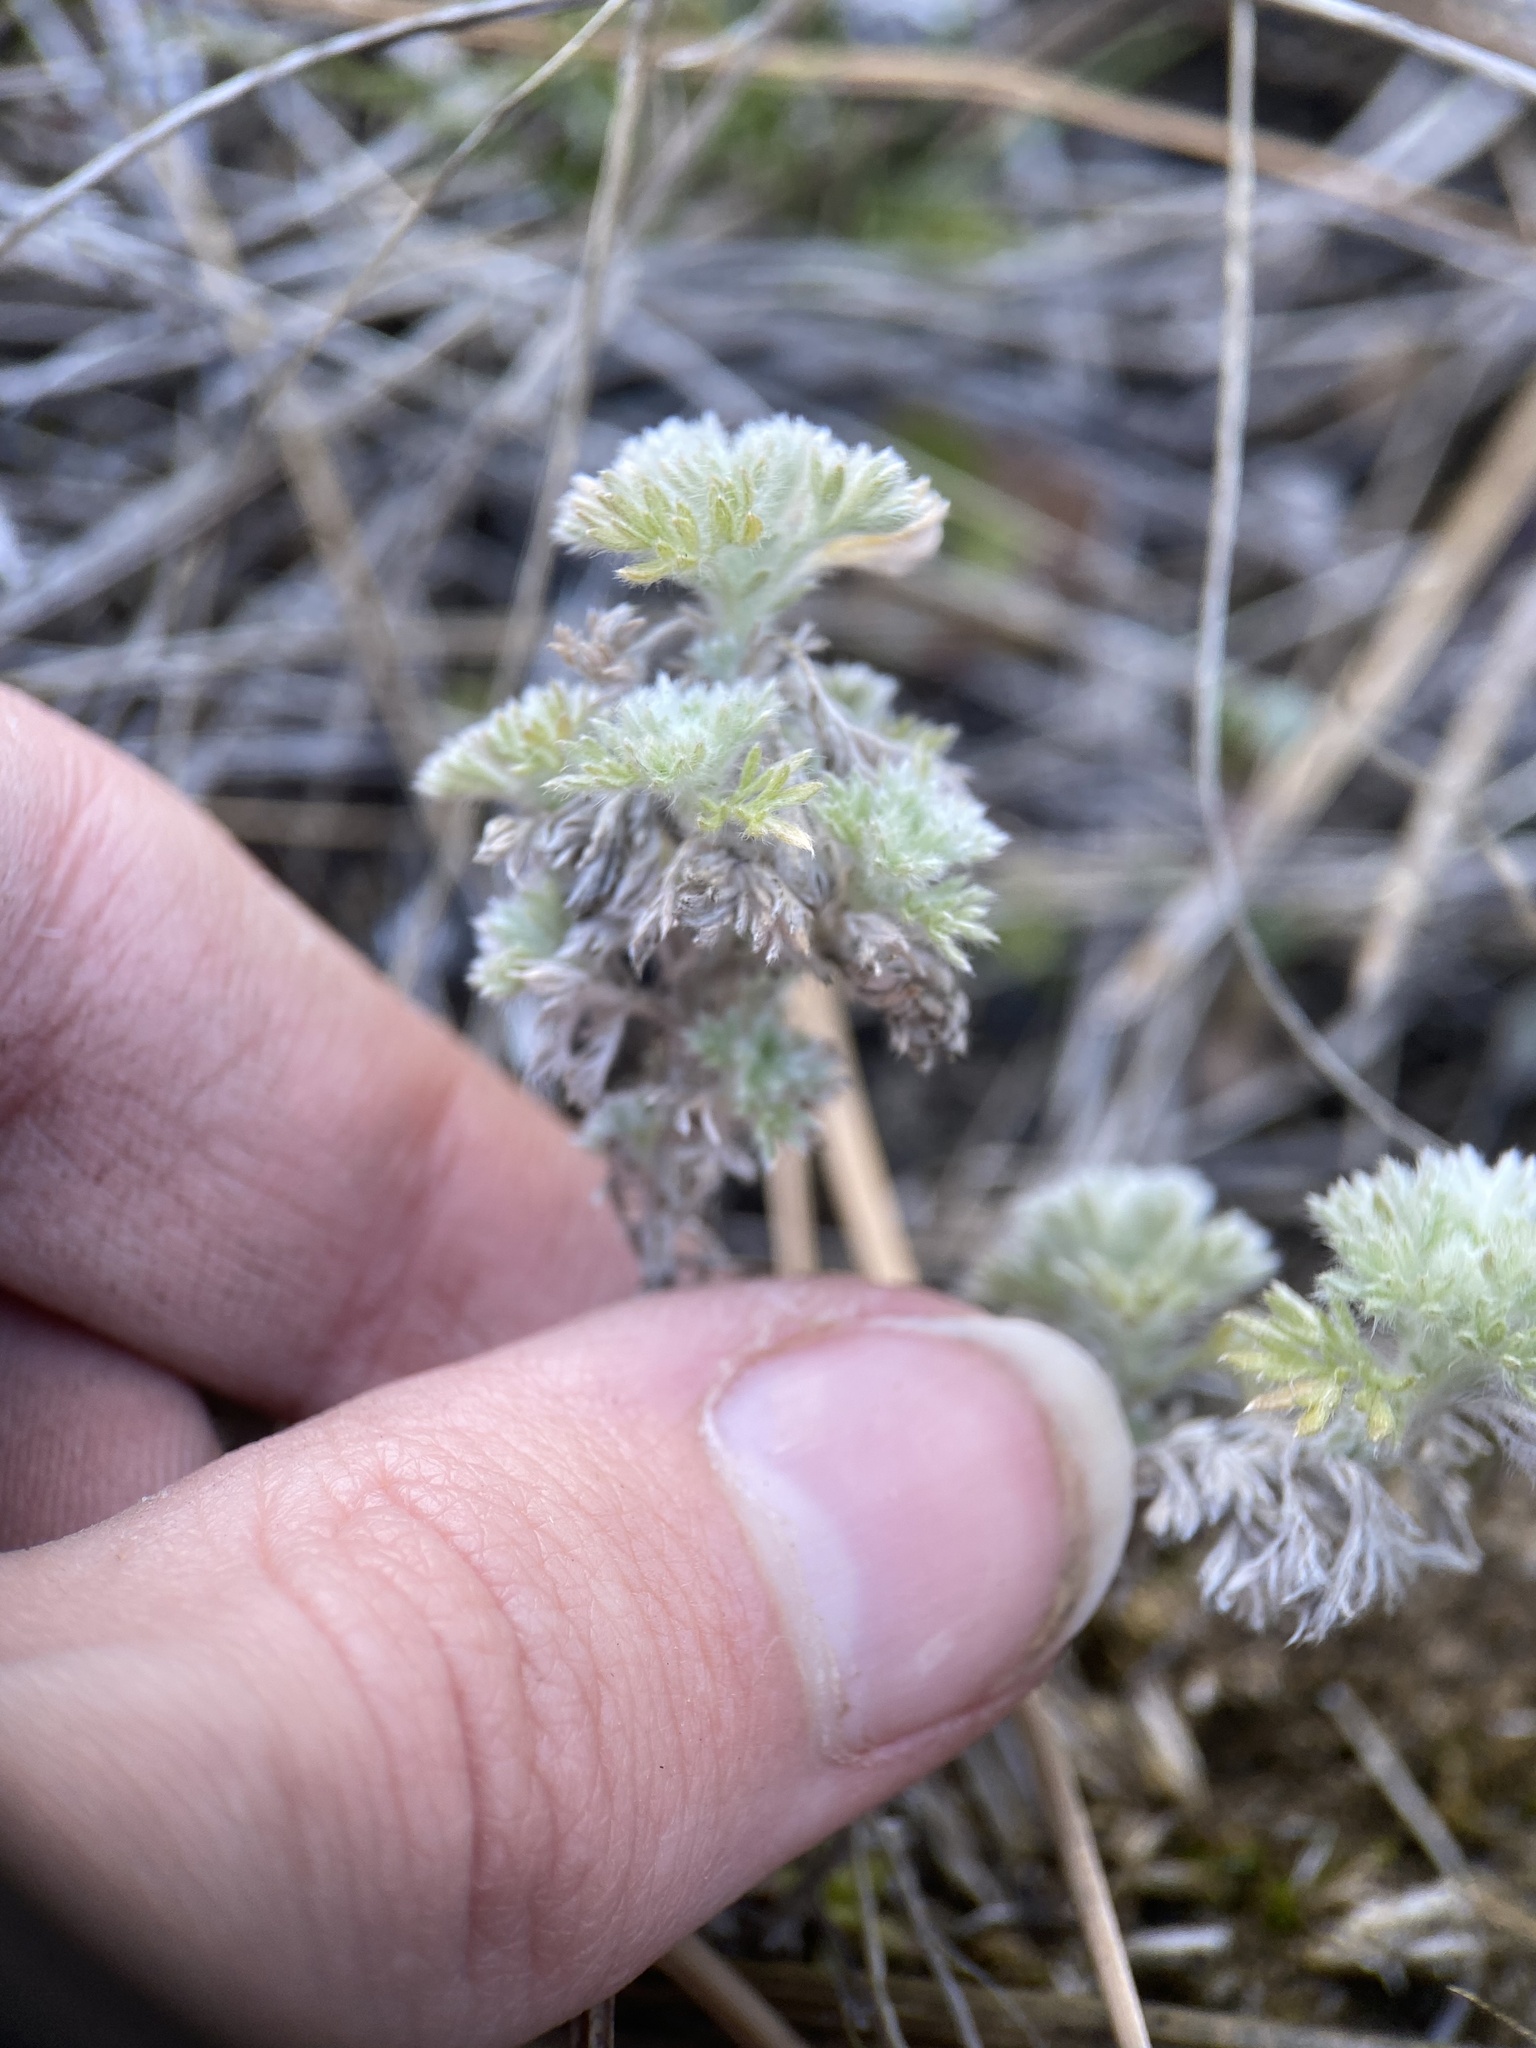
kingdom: Plantae
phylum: Tracheophyta
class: Magnoliopsida
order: Asterales
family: Asteraceae
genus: Artemisia
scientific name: Artemisia frigida
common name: Prairie sagewort
